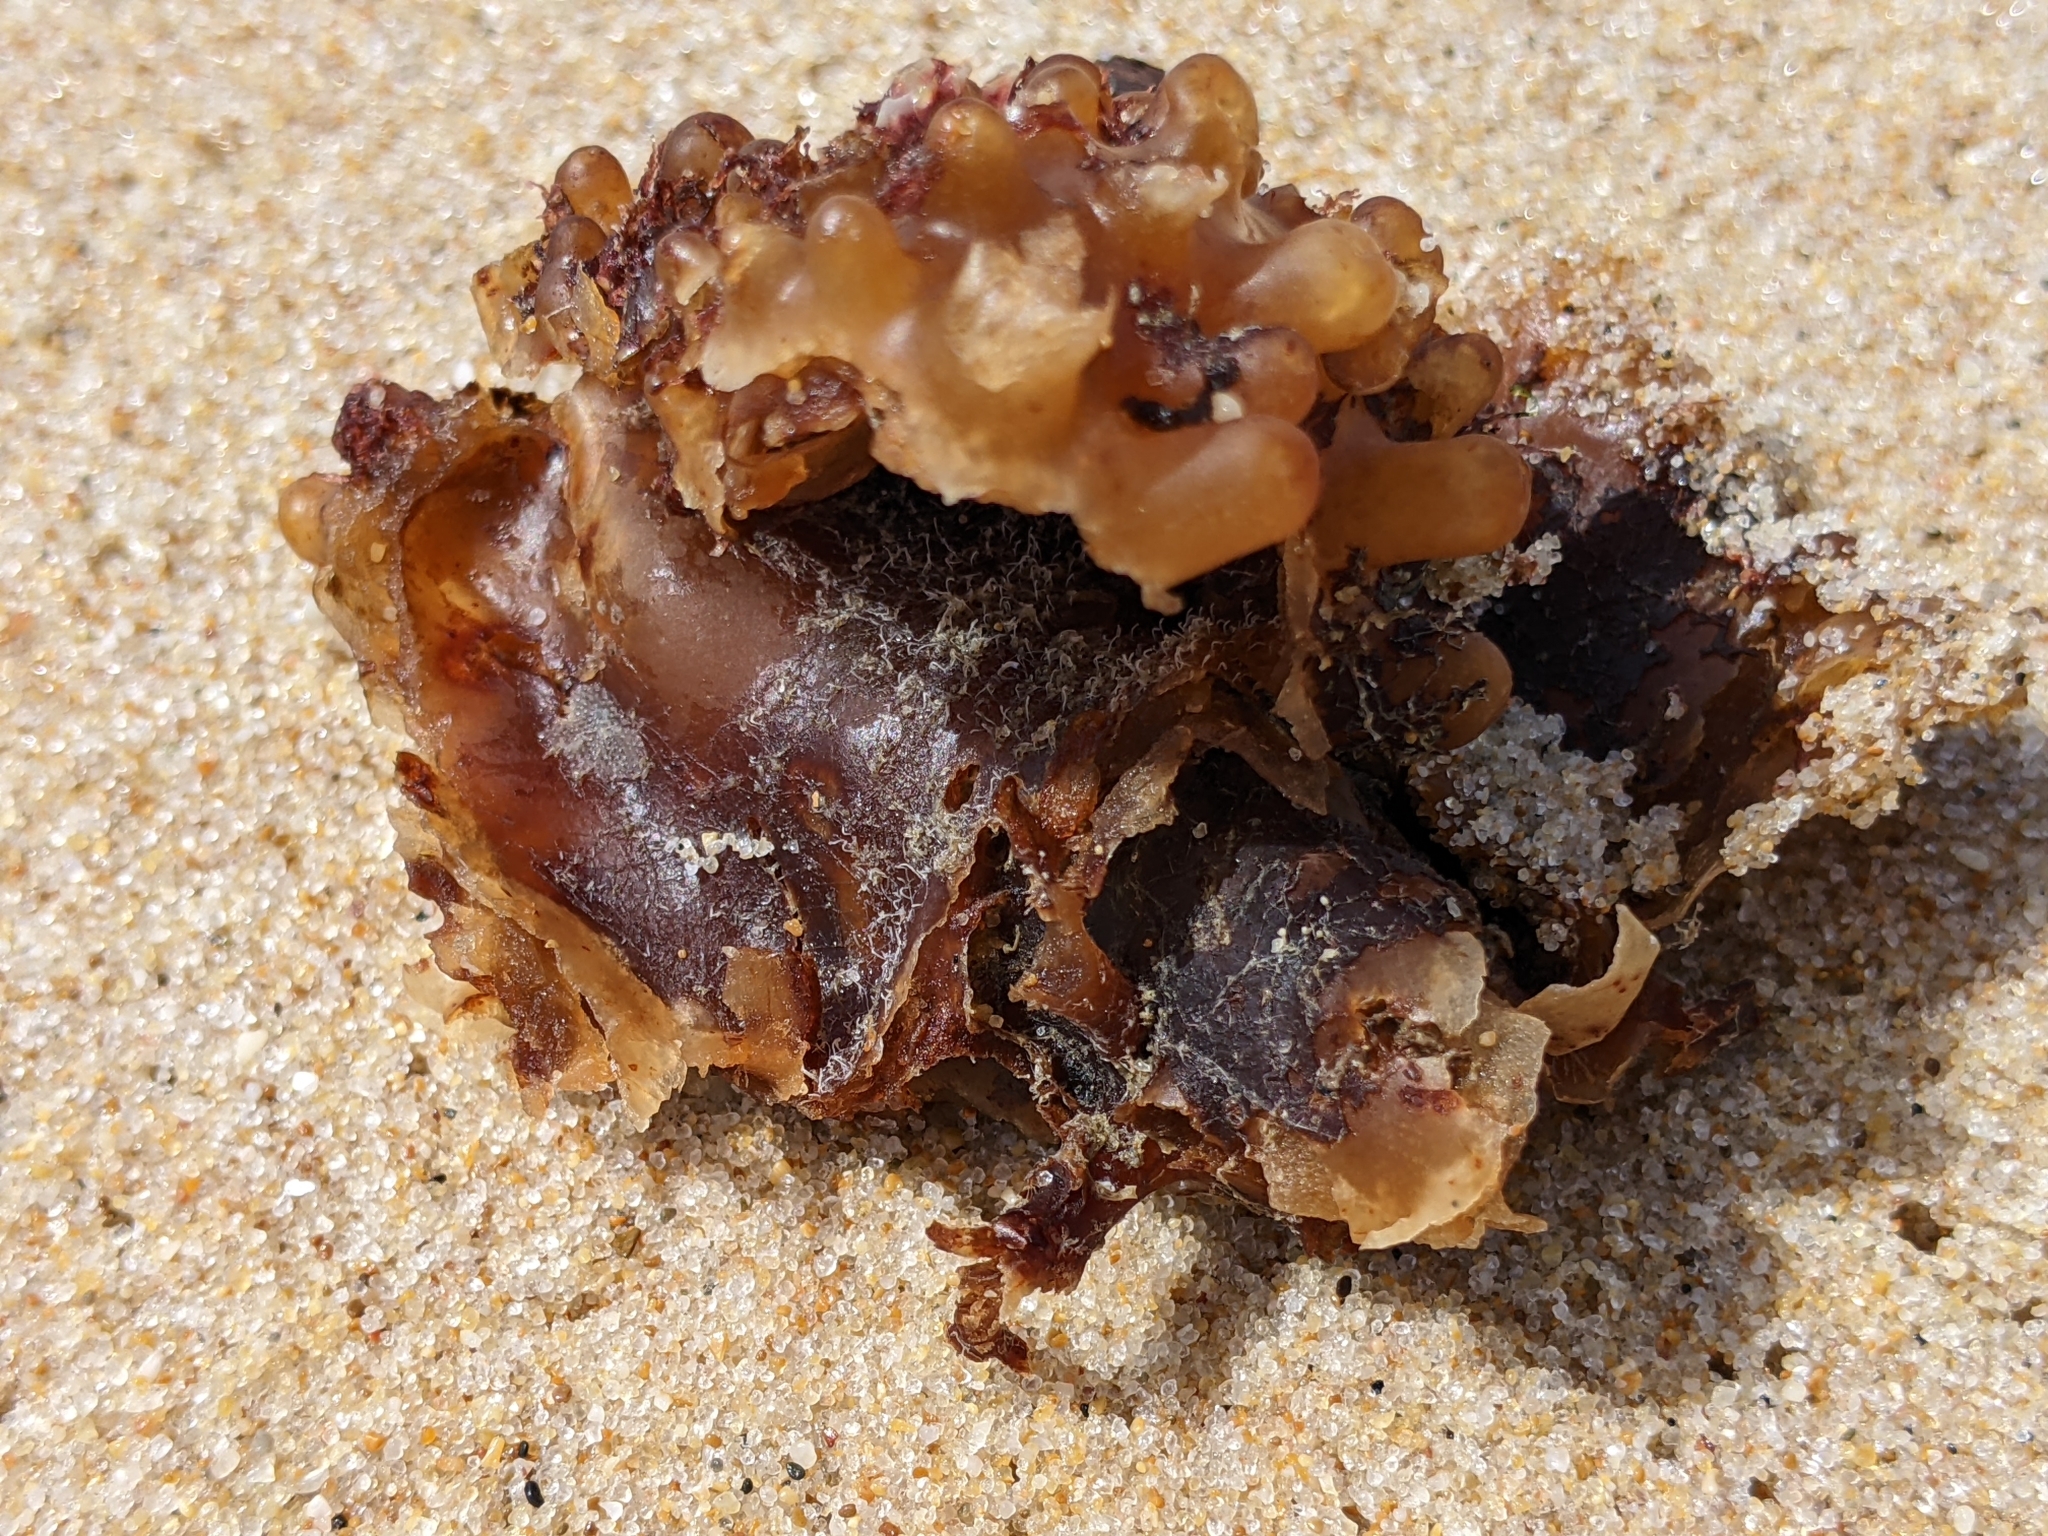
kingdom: Chromista
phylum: Ochrophyta
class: Phaeophyceae
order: Tilopteridales
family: Phyllariaceae
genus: Saccorhiza
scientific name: Saccorhiza polyschides
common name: Furbelows
